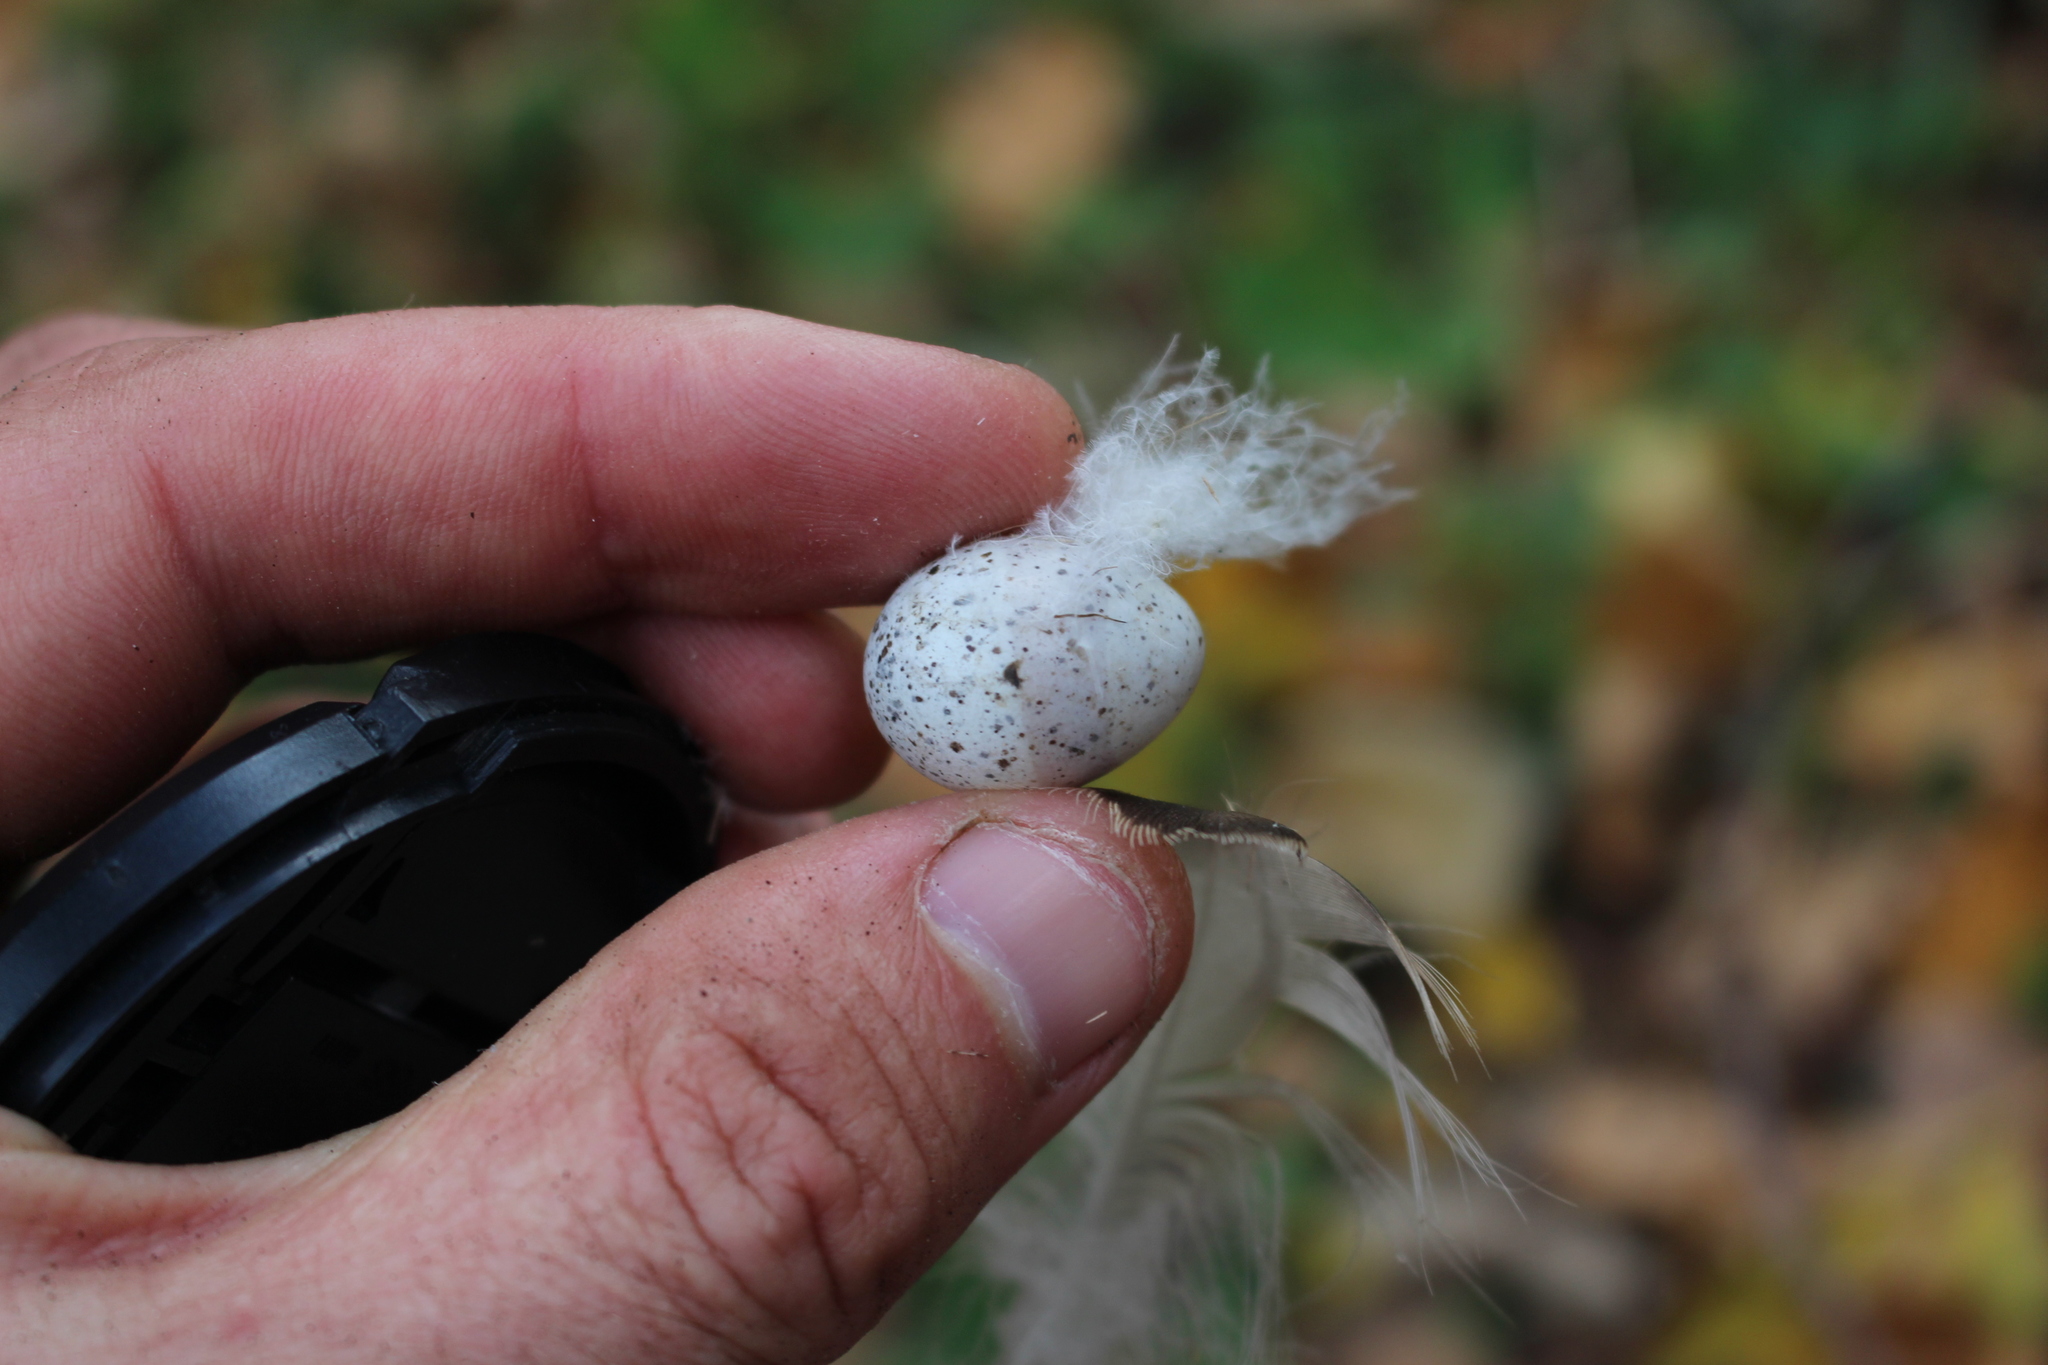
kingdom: Animalia
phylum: Chordata
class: Aves
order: Passeriformes
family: Passeridae
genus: Passer
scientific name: Passer domesticus
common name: House sparrow
